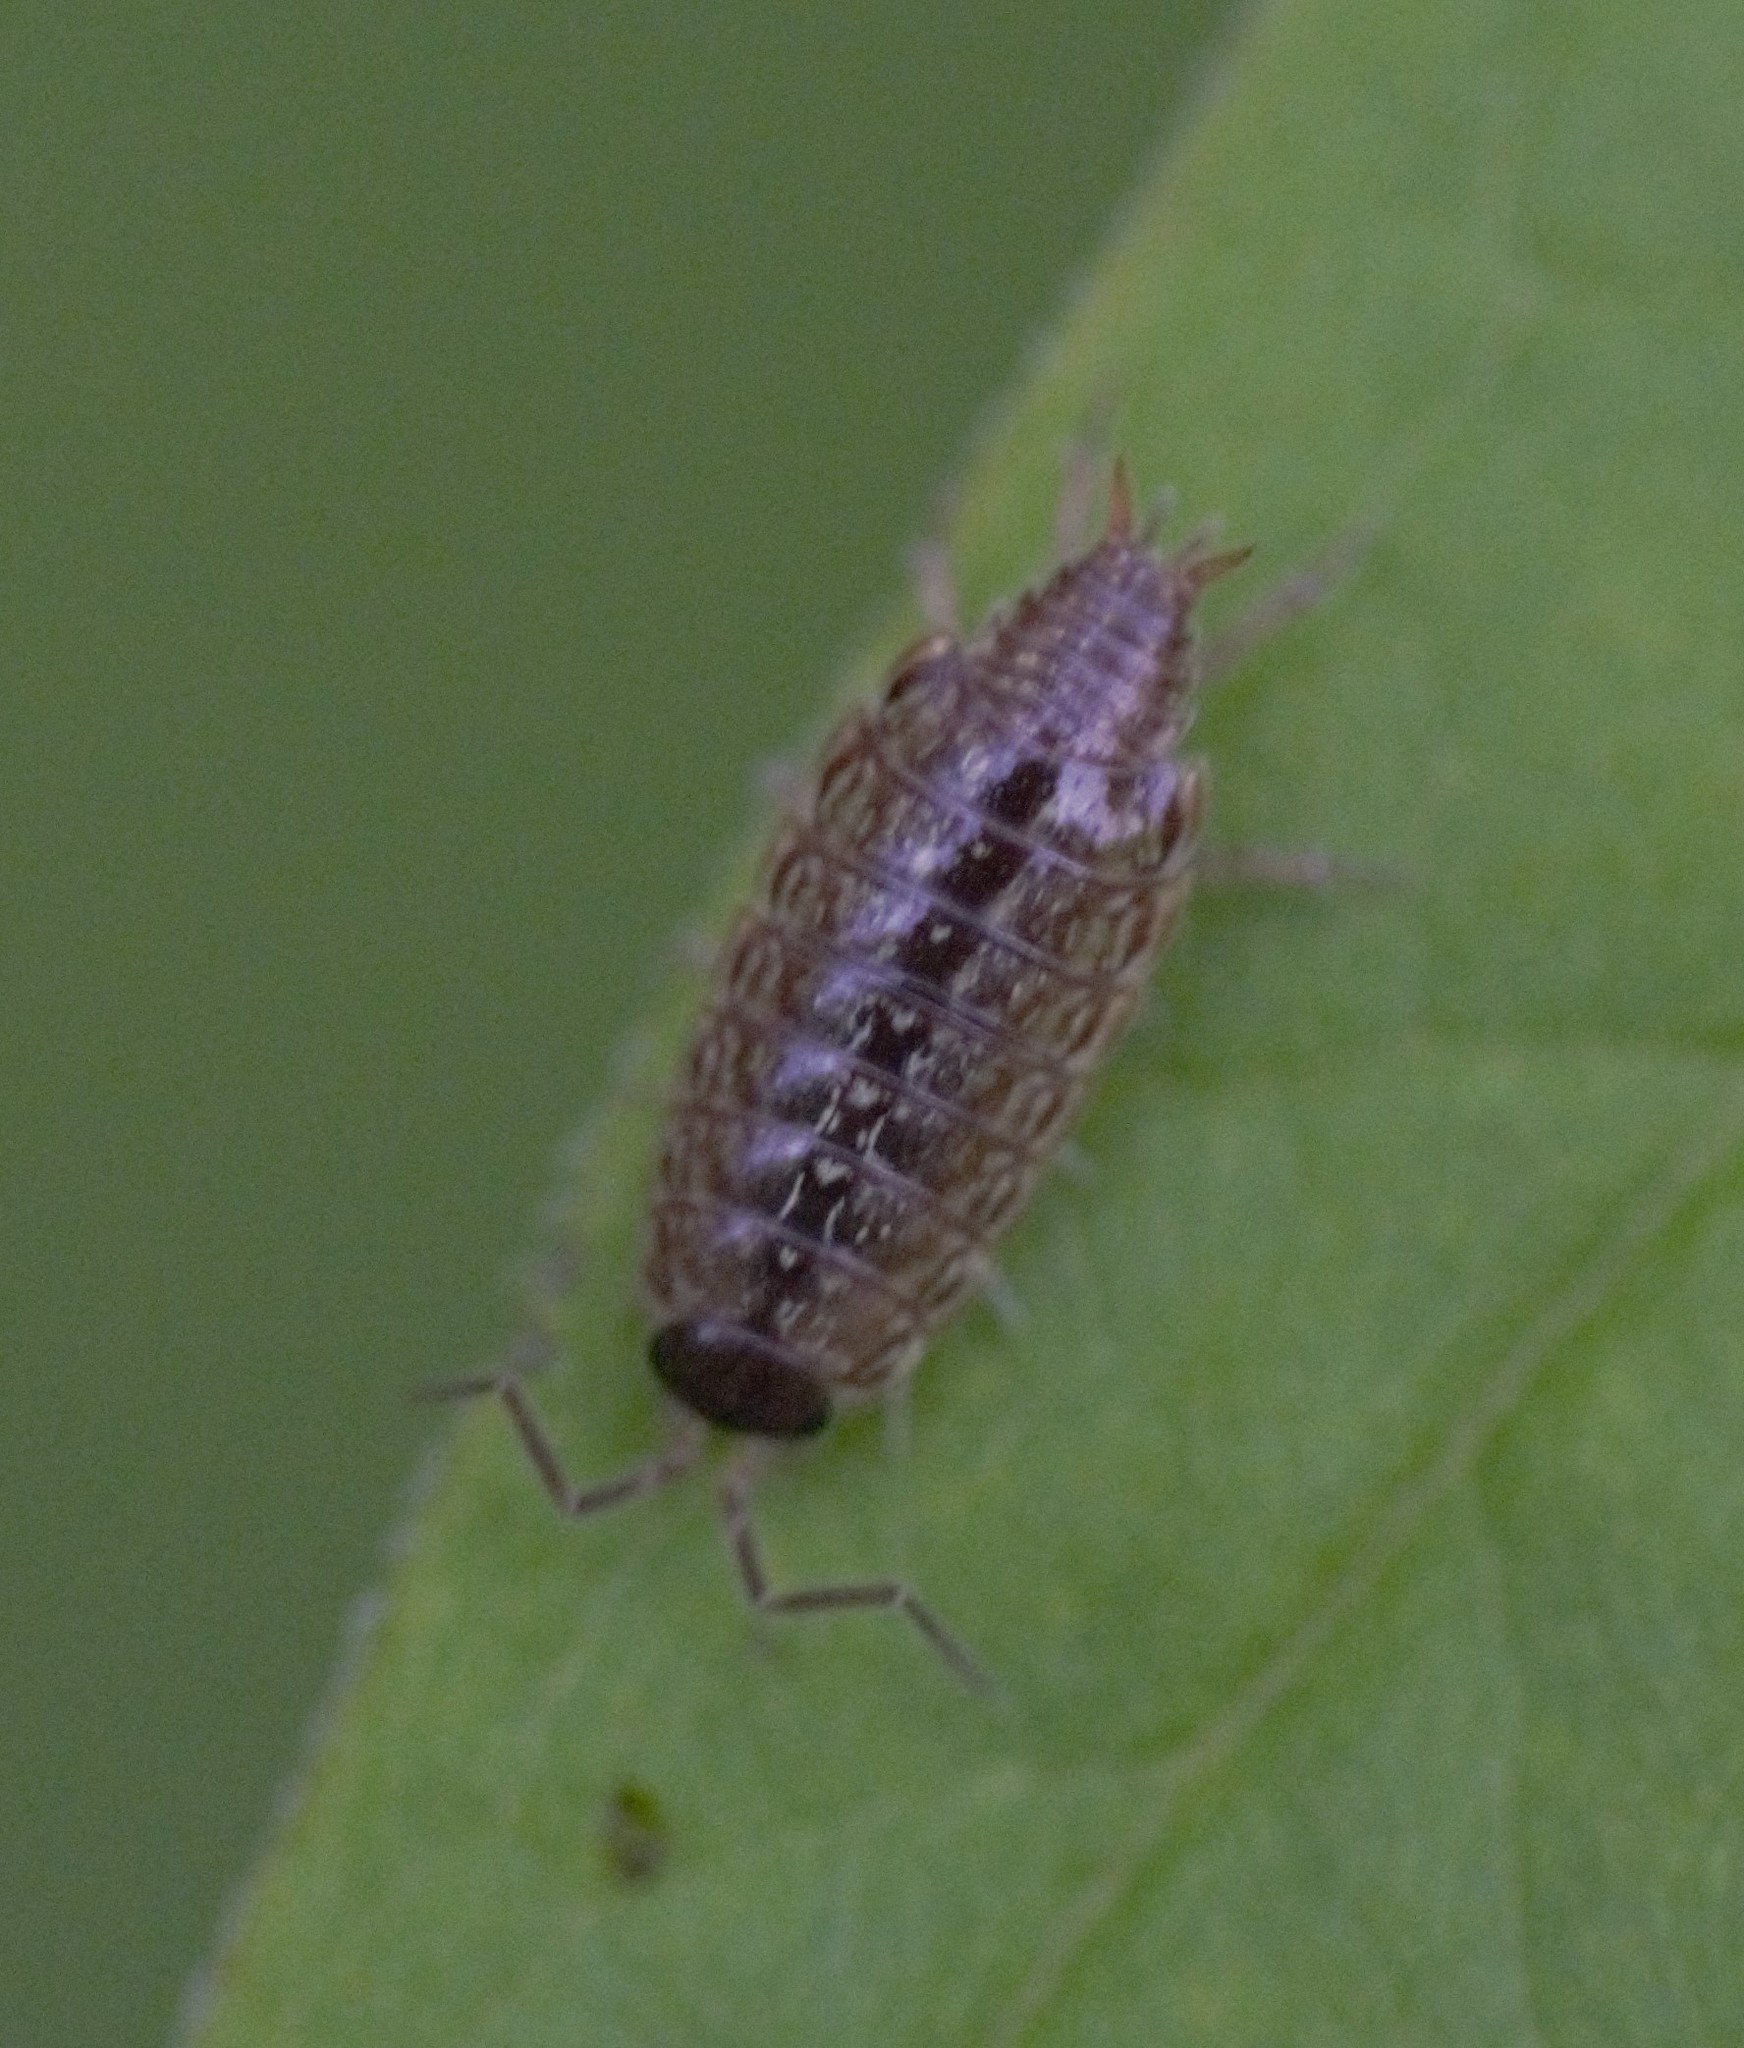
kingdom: Animalia
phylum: Arthropoda
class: Malacostraca
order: Isopoda
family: Philosciidae
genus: Philoscia
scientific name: Philoscia muscorum
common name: Common striped woodlouse
